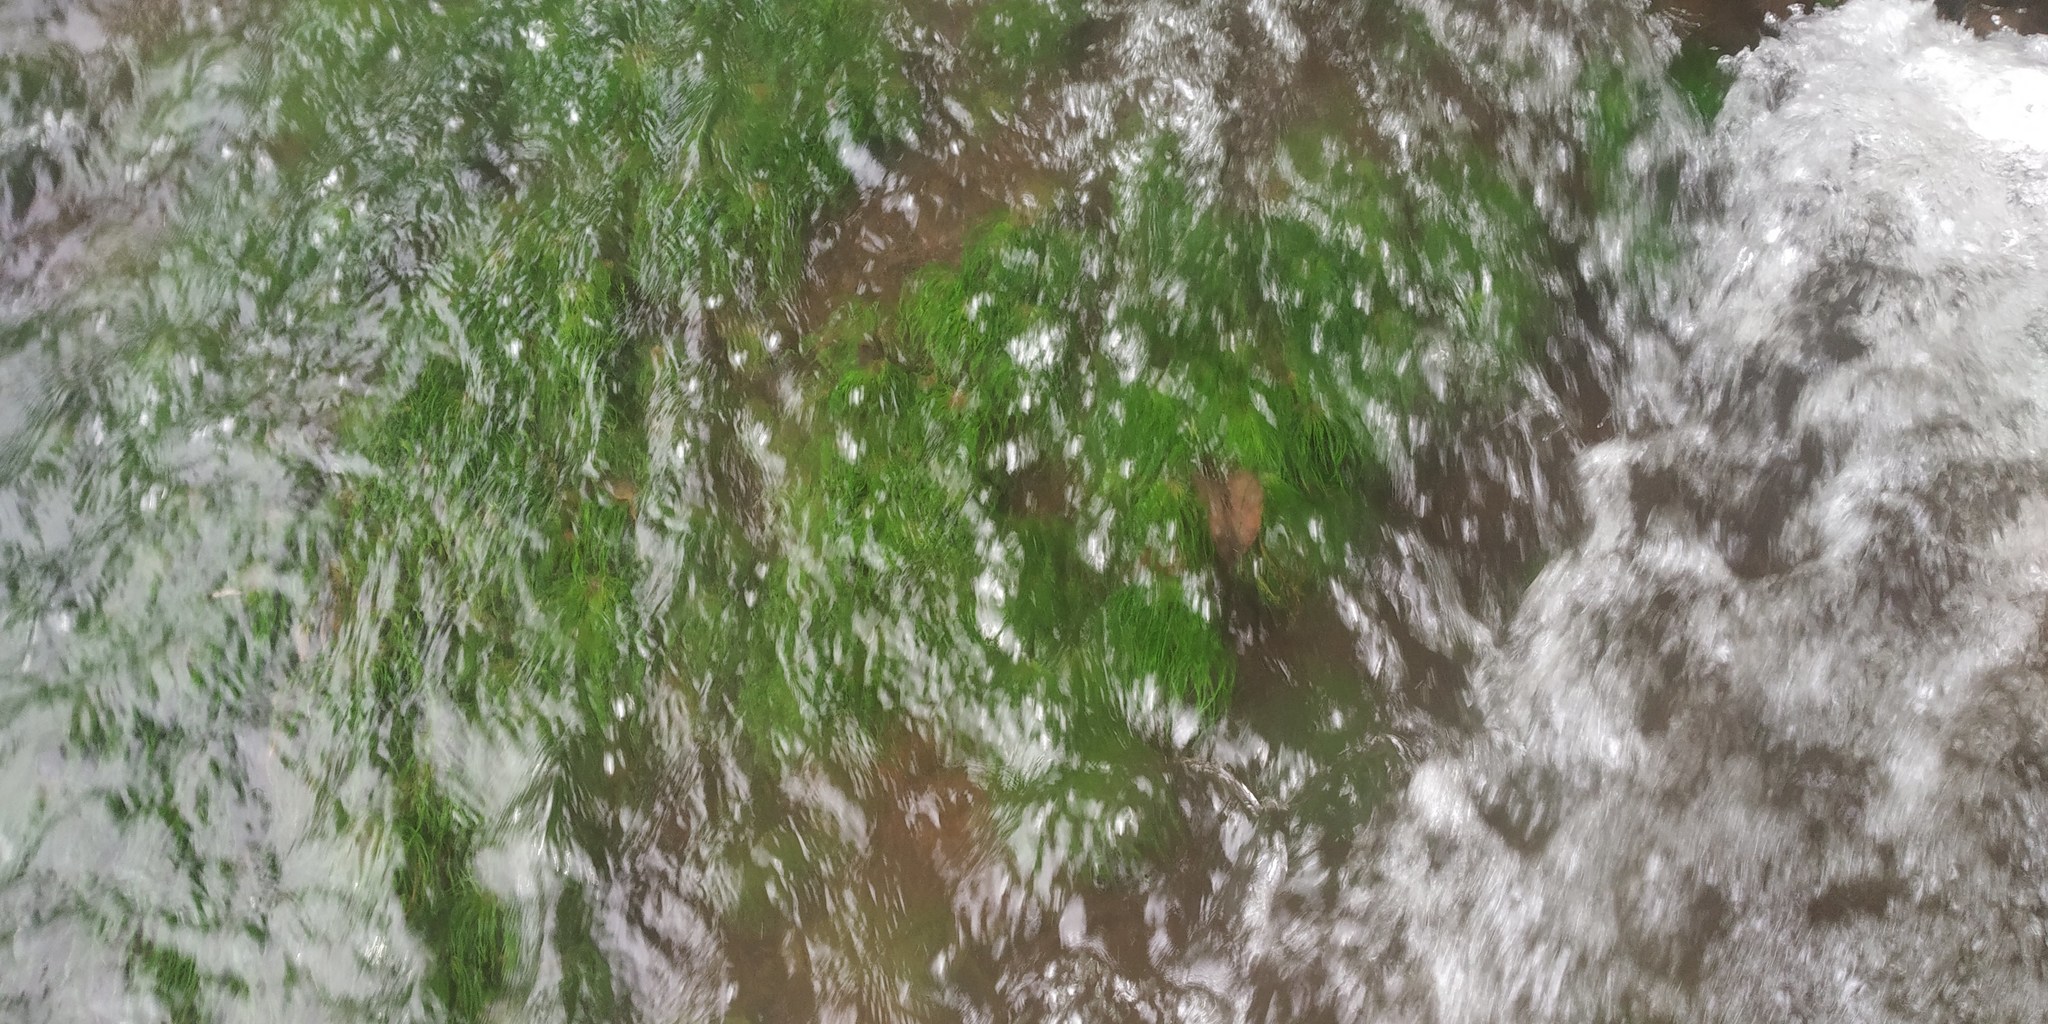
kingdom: Plantae
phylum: Tracheophyta
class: Liliopsida
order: Poales
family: Eriocaulaceae
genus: Eriocaulon
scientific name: Eriocaulon setaceum
